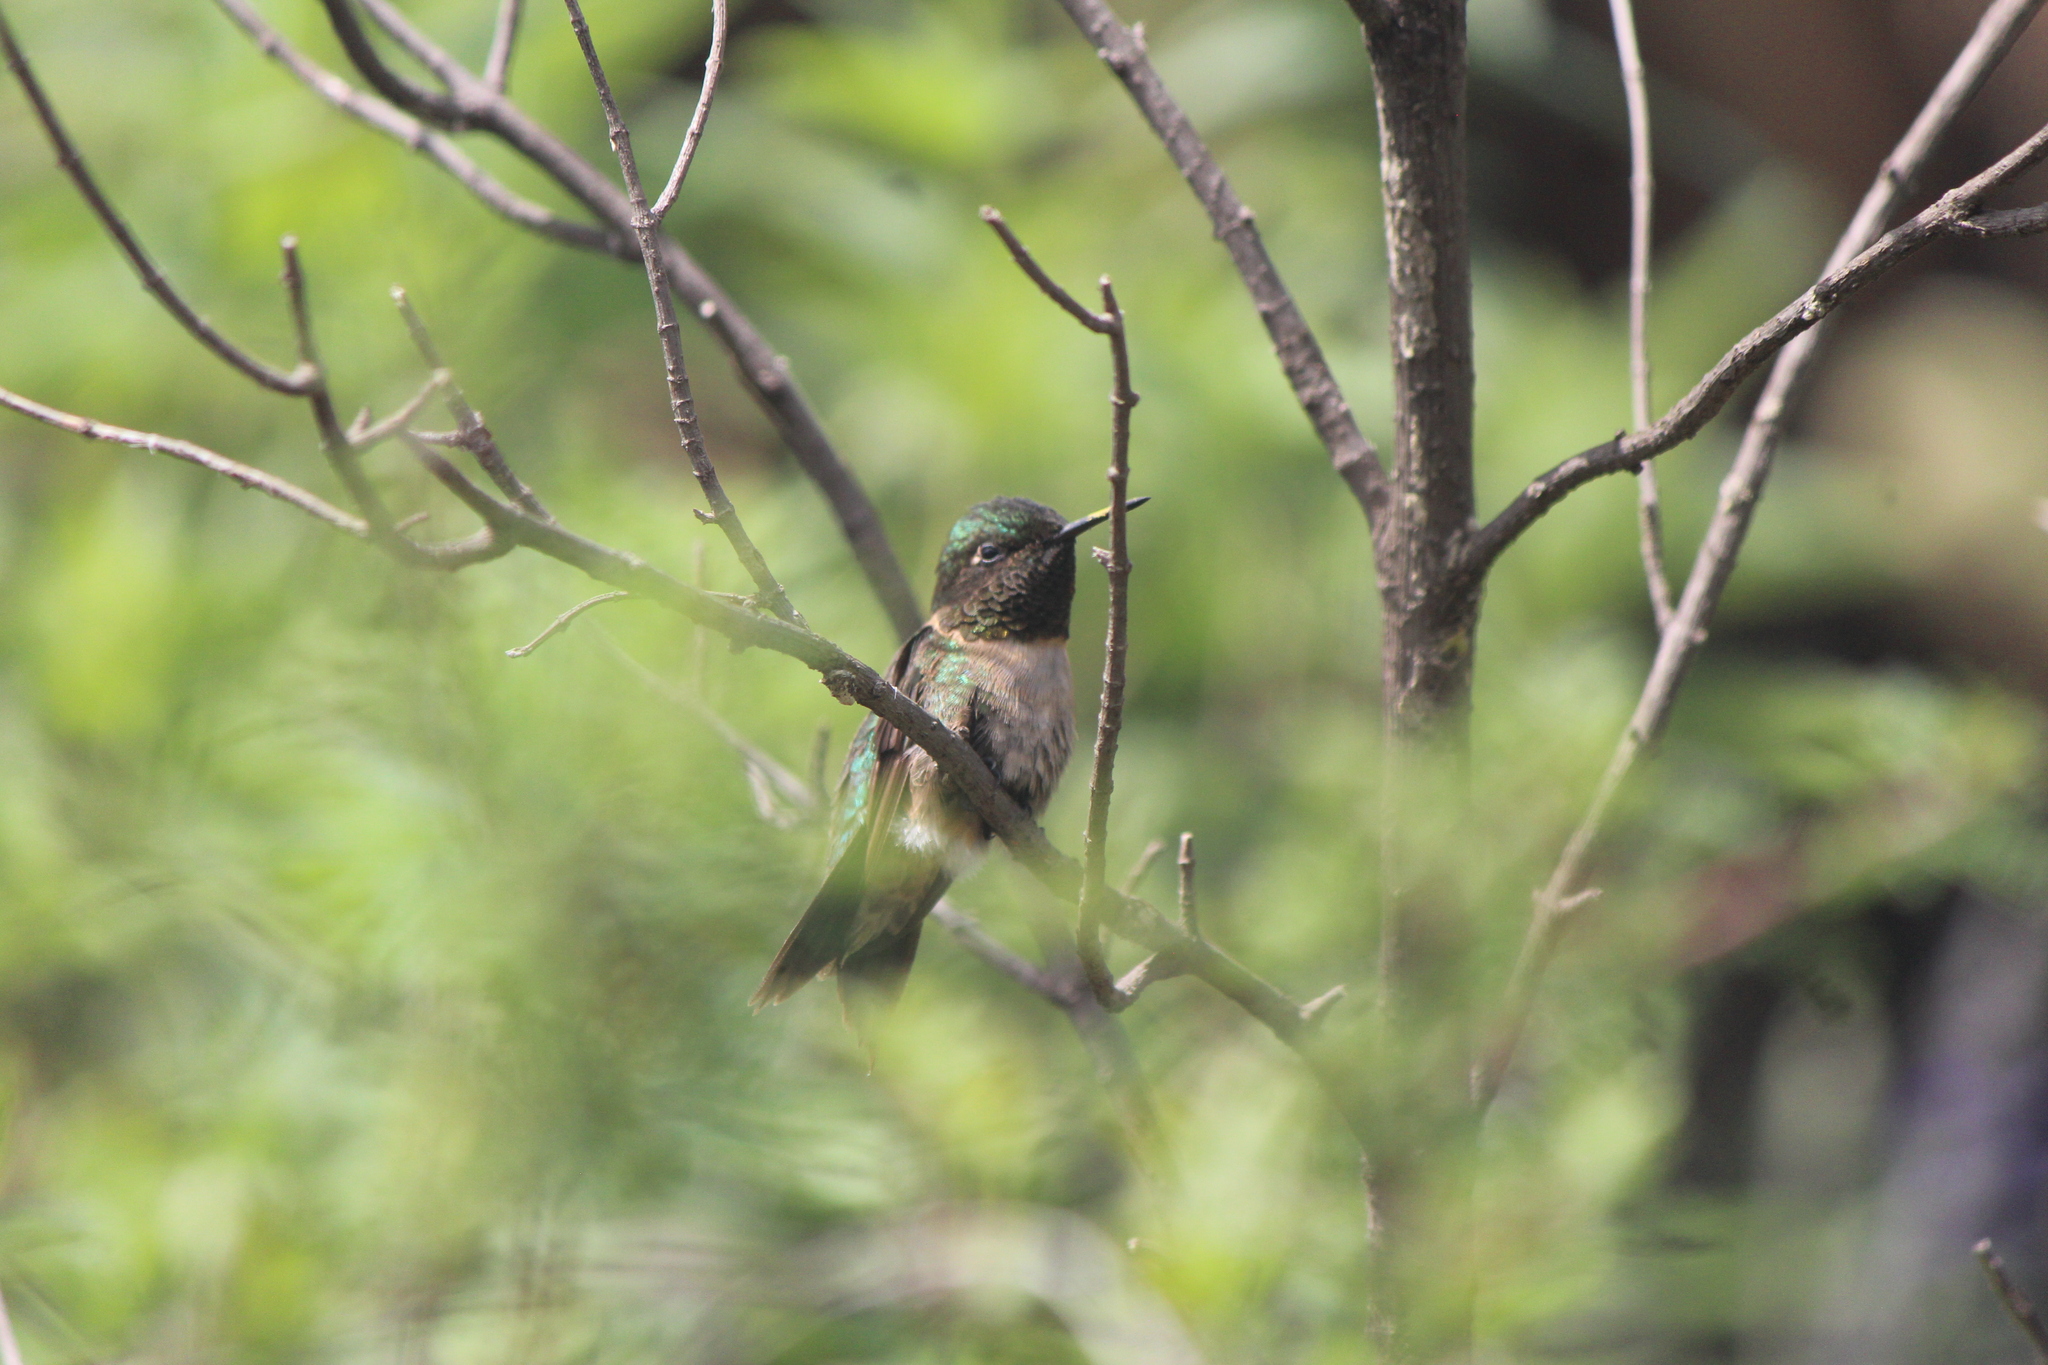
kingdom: Animalia
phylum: Chordata
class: Aves
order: Apodiformes
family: Trochilidae
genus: Archilochus
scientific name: Archilochus colubris
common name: Ruby-throated hummingbird
